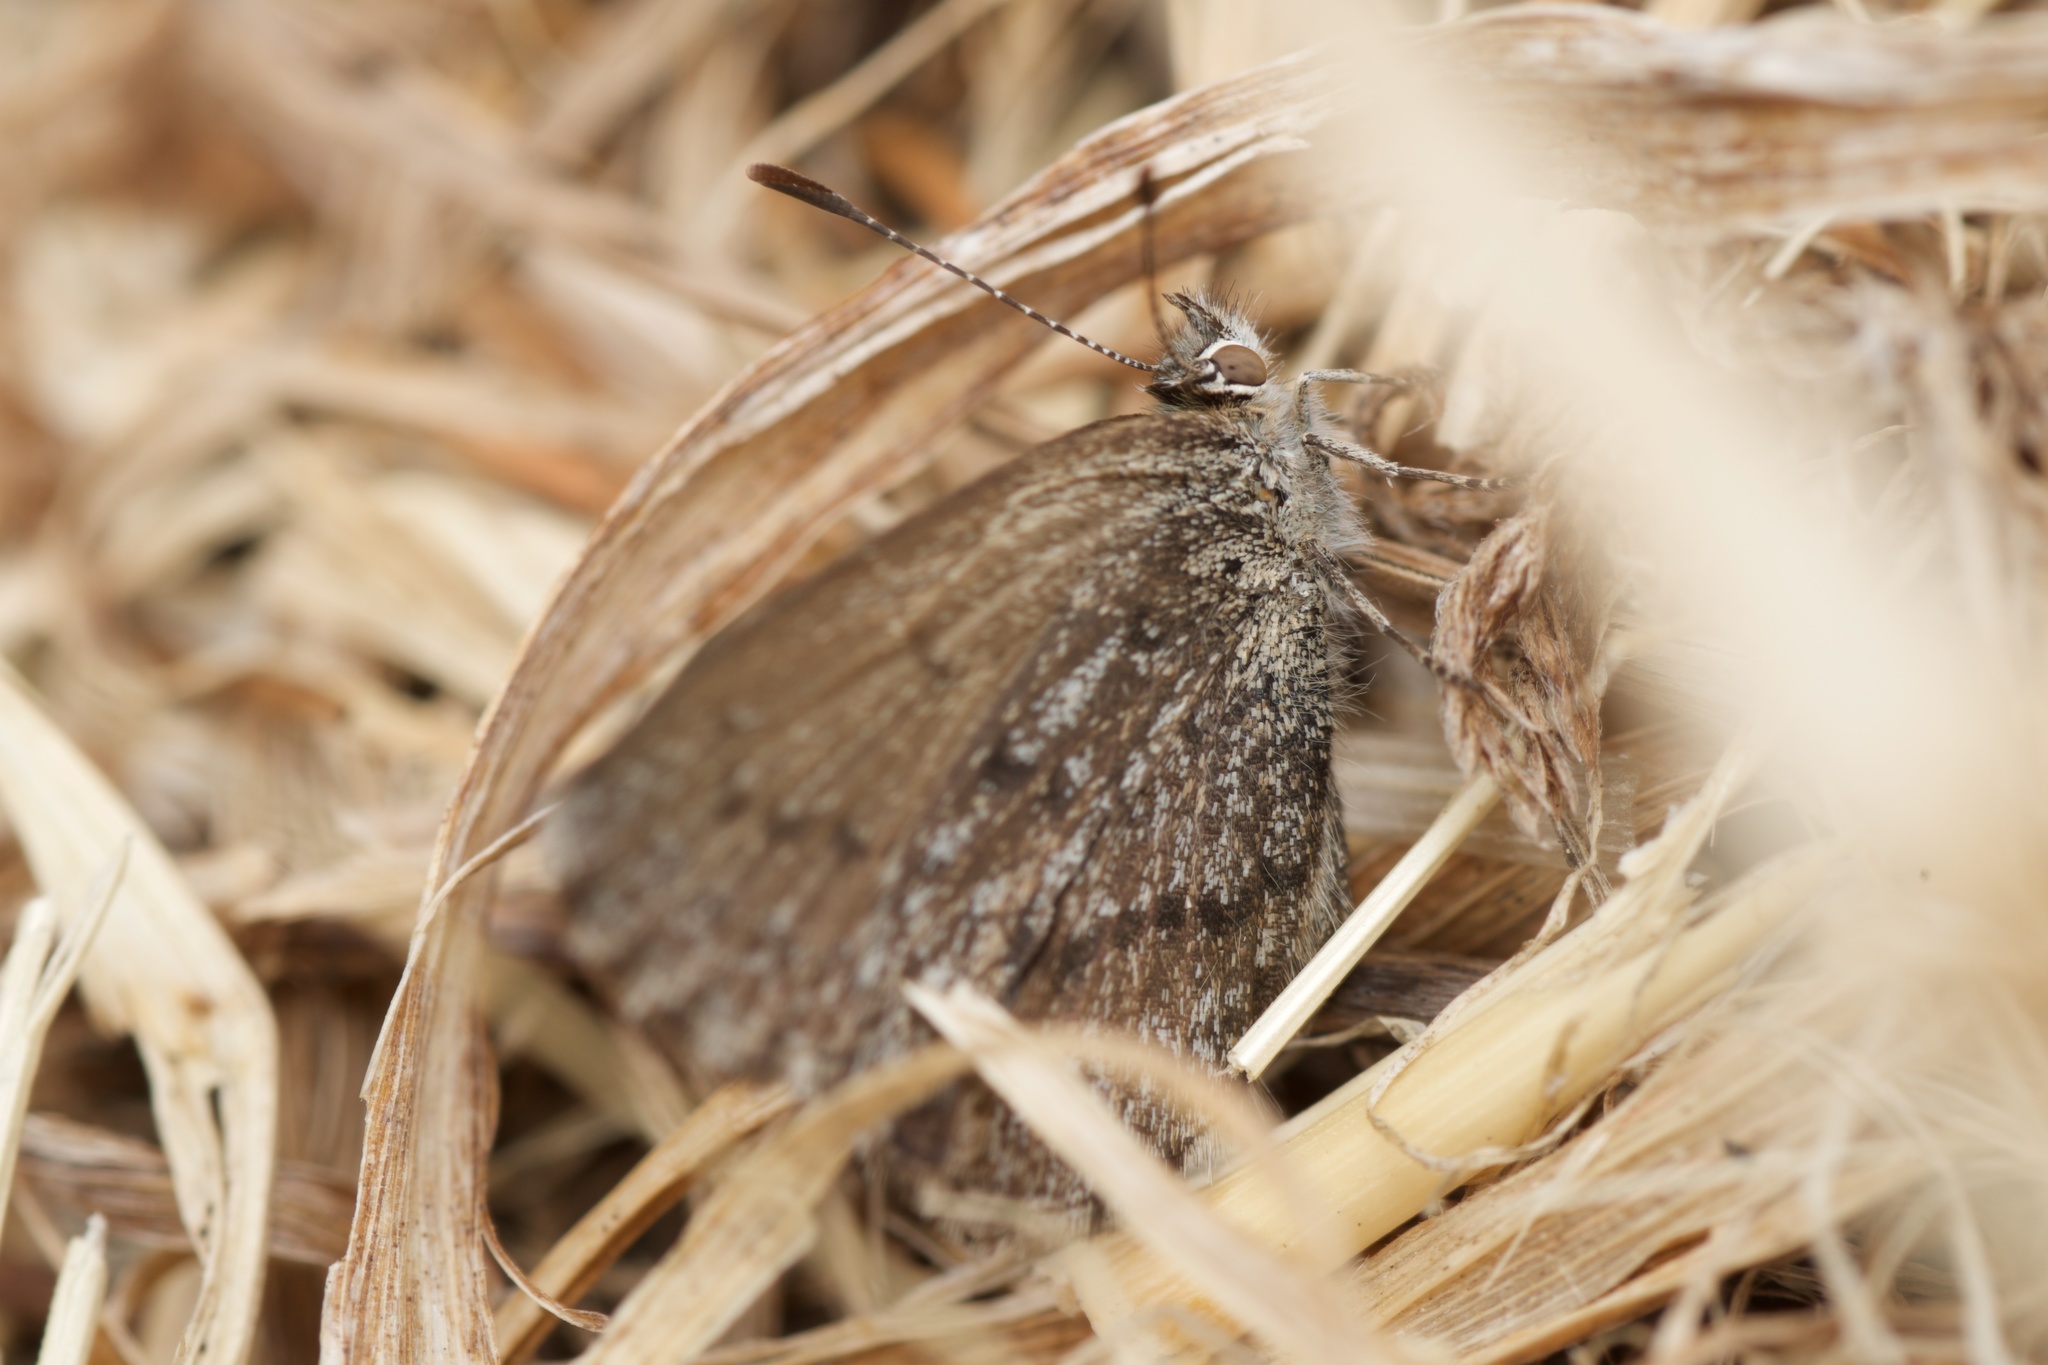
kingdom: Animalia
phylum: Arthropoda
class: Insecta
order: Lepidoptera
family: Lycaenidae
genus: Zizina
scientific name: Zizina oxleyi
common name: Southern blue
